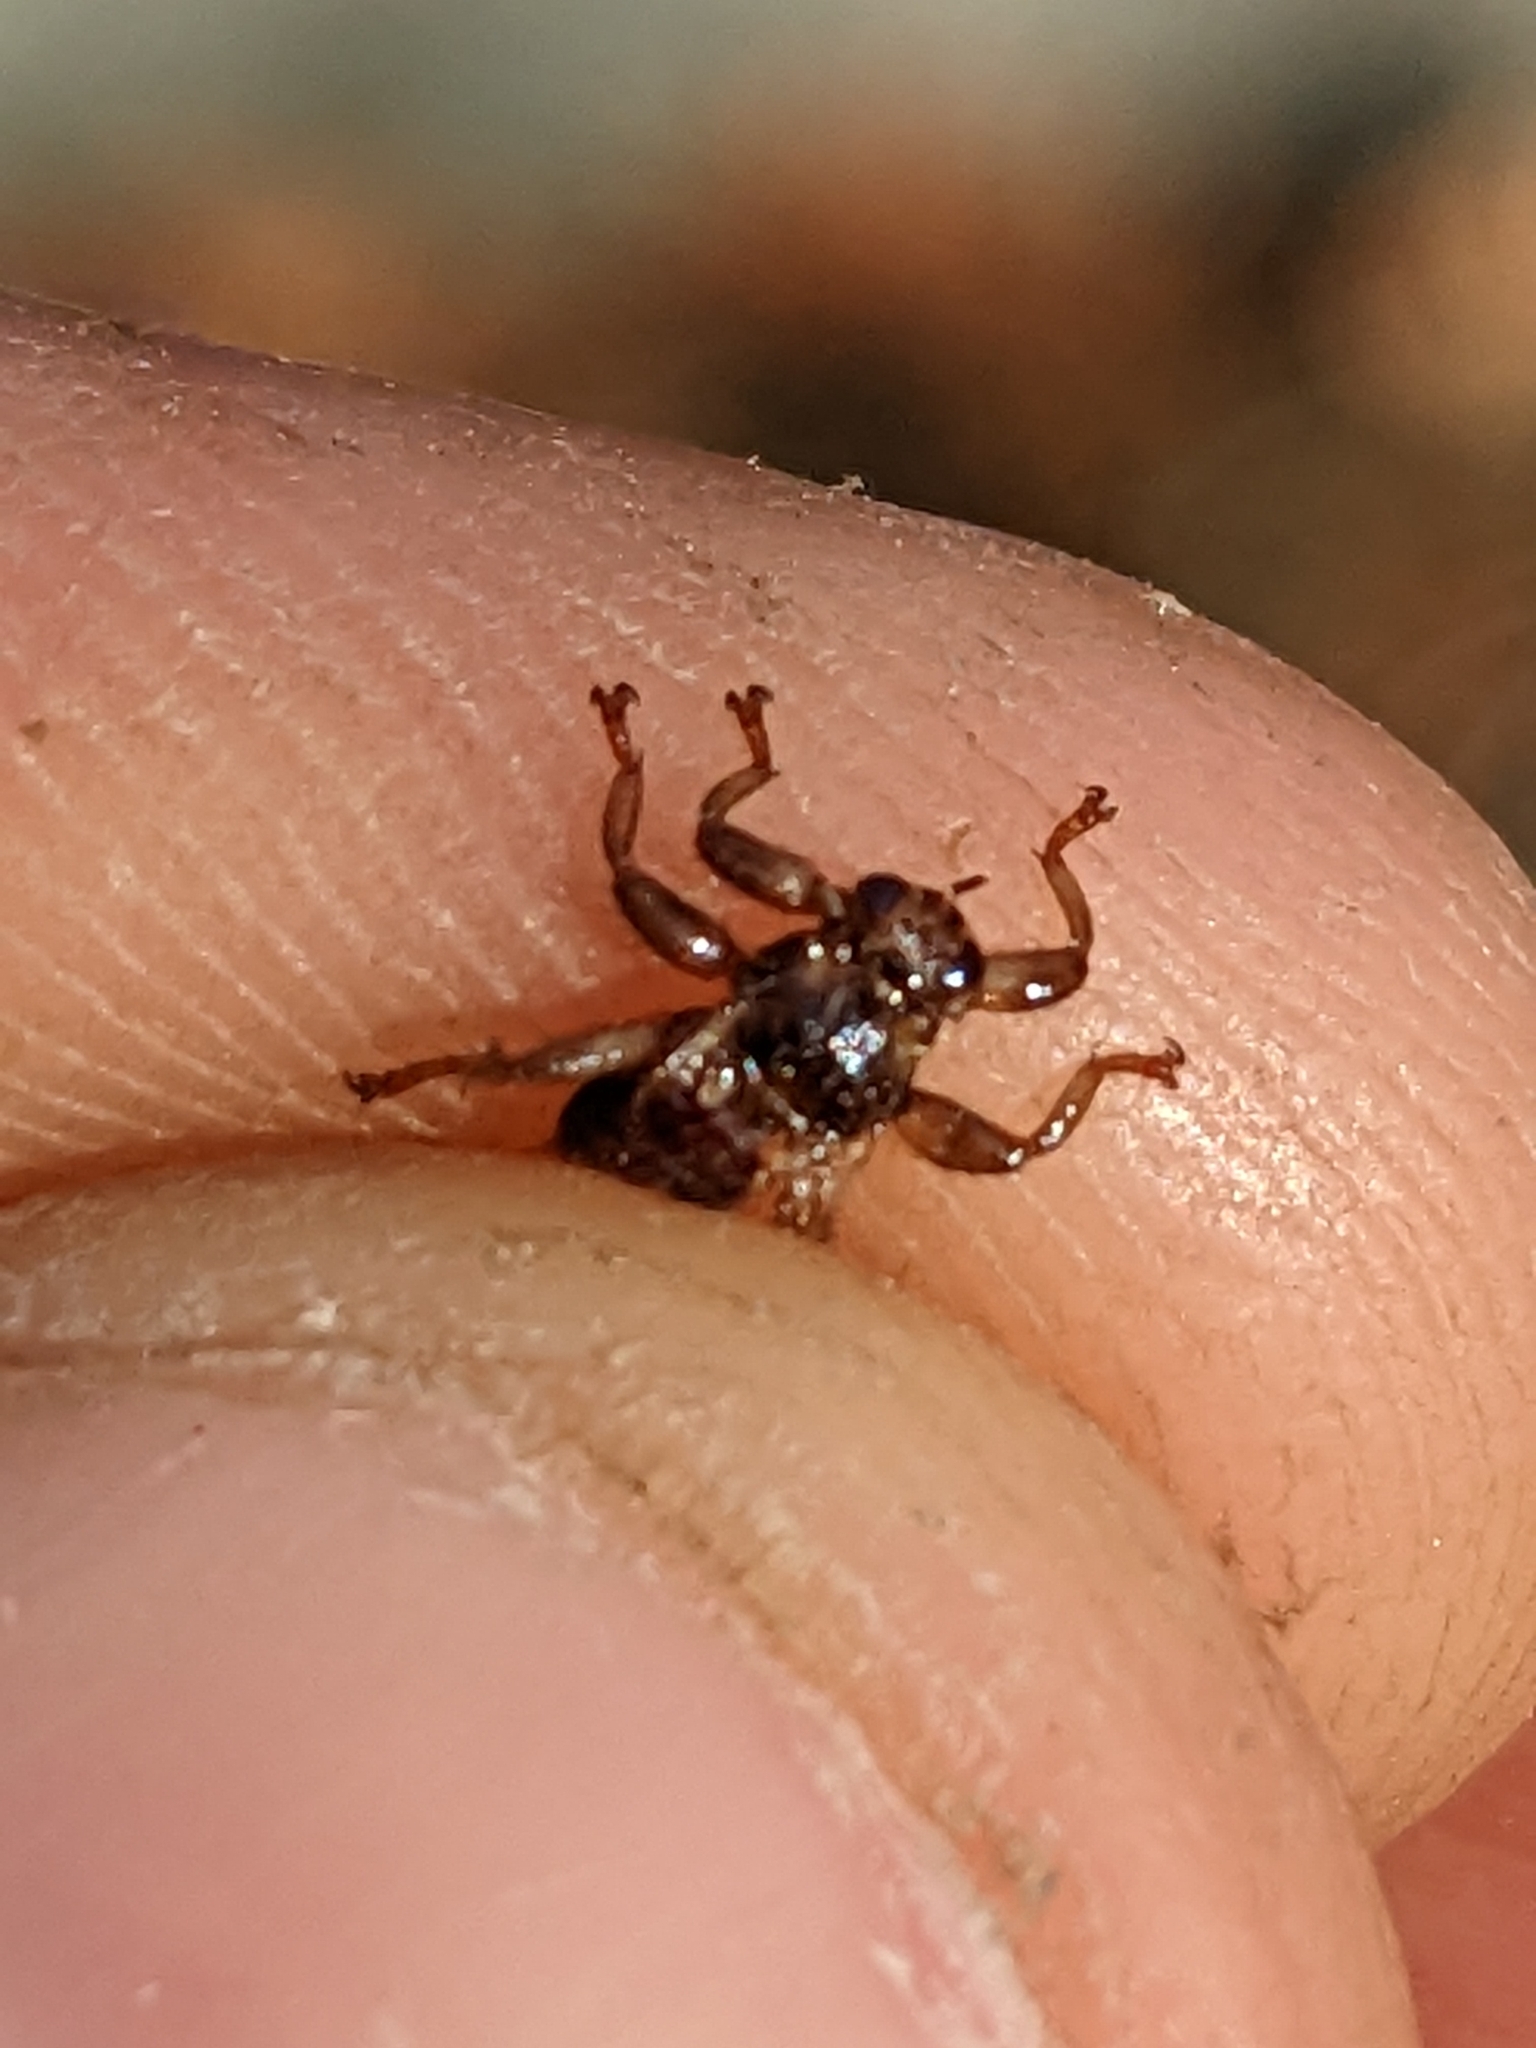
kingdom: Animalia
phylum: Arthropoda
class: Insecta
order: Diptera
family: Hippoboscidae
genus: Lipoptena
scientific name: Lipoptena cervi
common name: Deer ked
